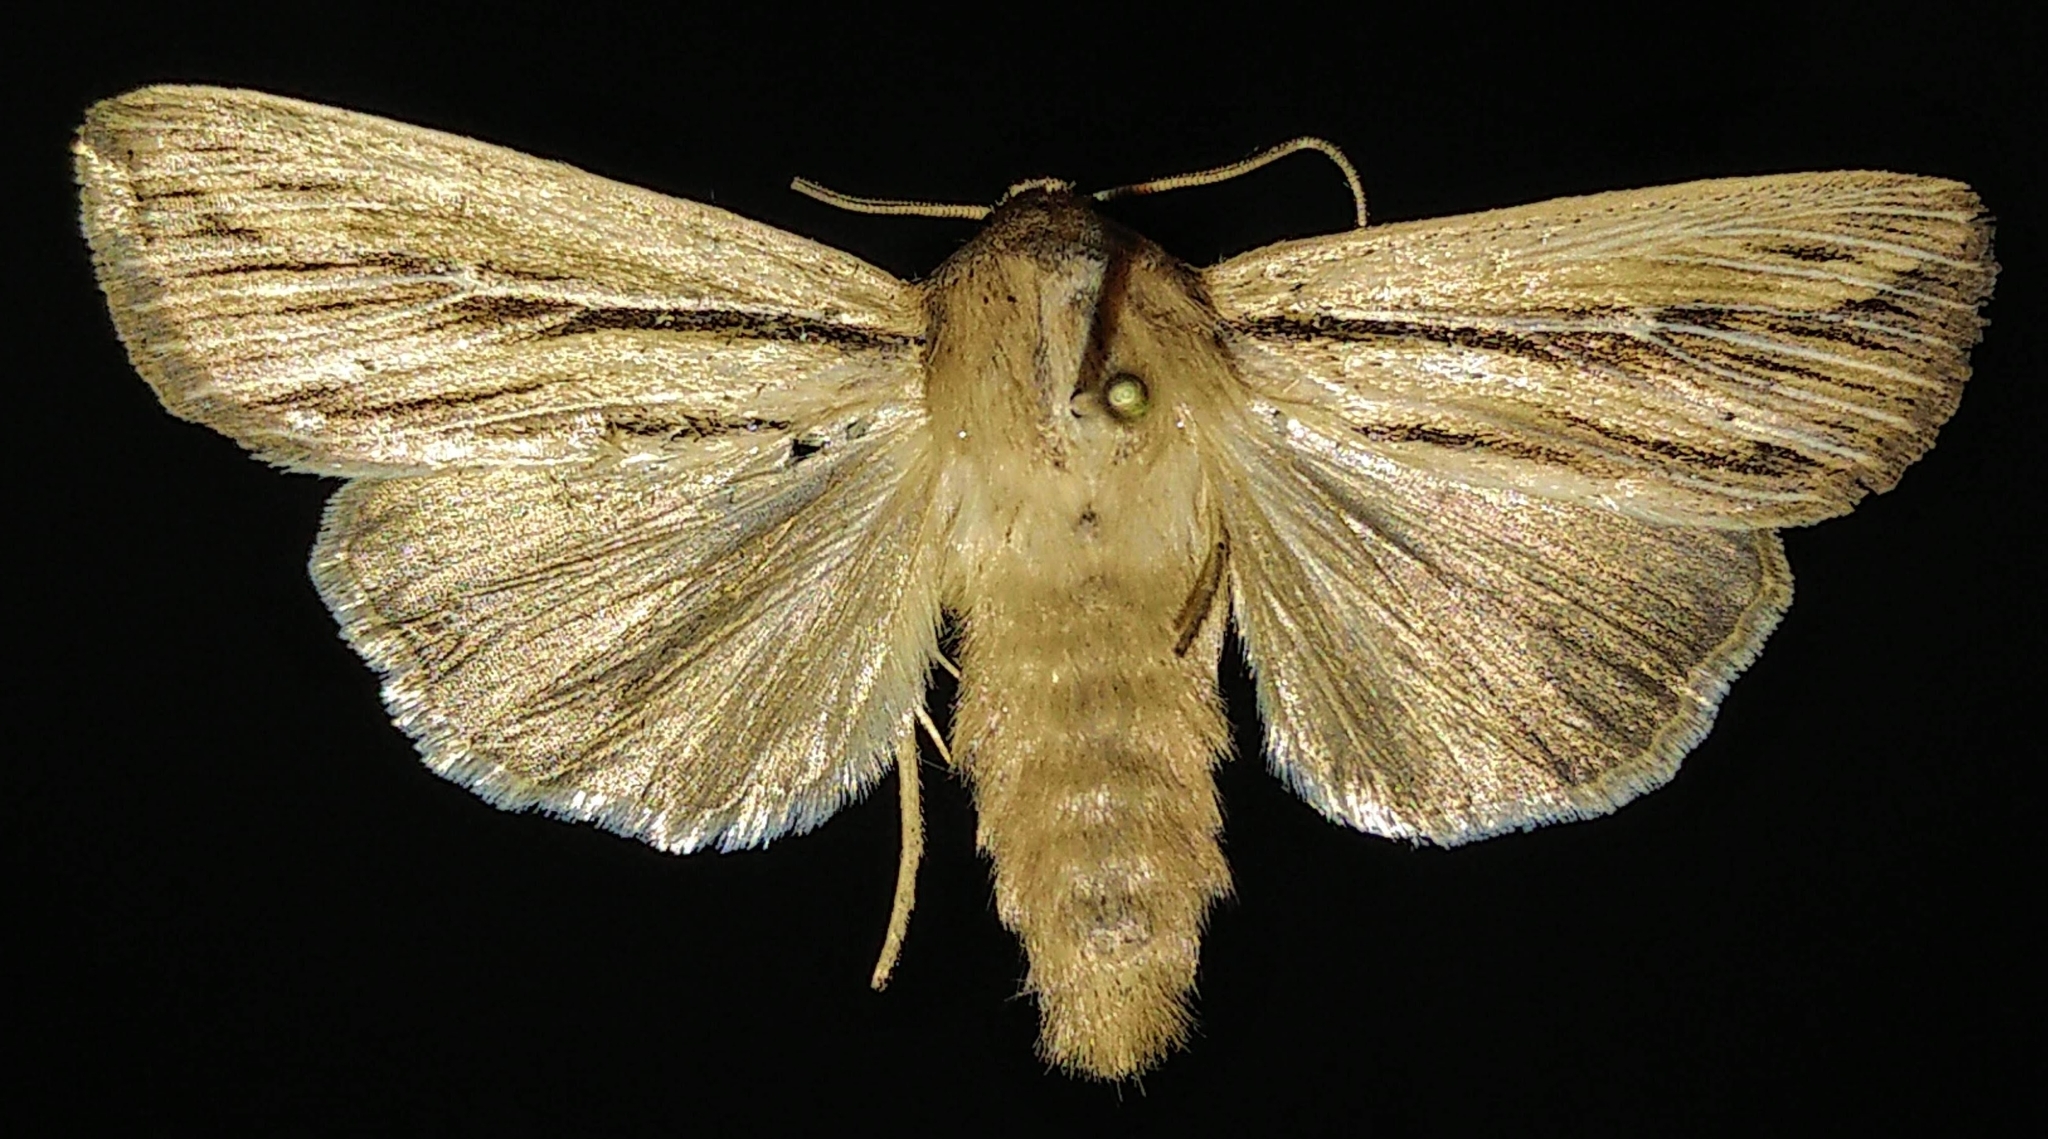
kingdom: Animalia
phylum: Arthropoda
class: Insecta
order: Lepidoptera
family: Noctuidae
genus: Leucania
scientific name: Leucania commoides
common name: Two-lined wainscot
